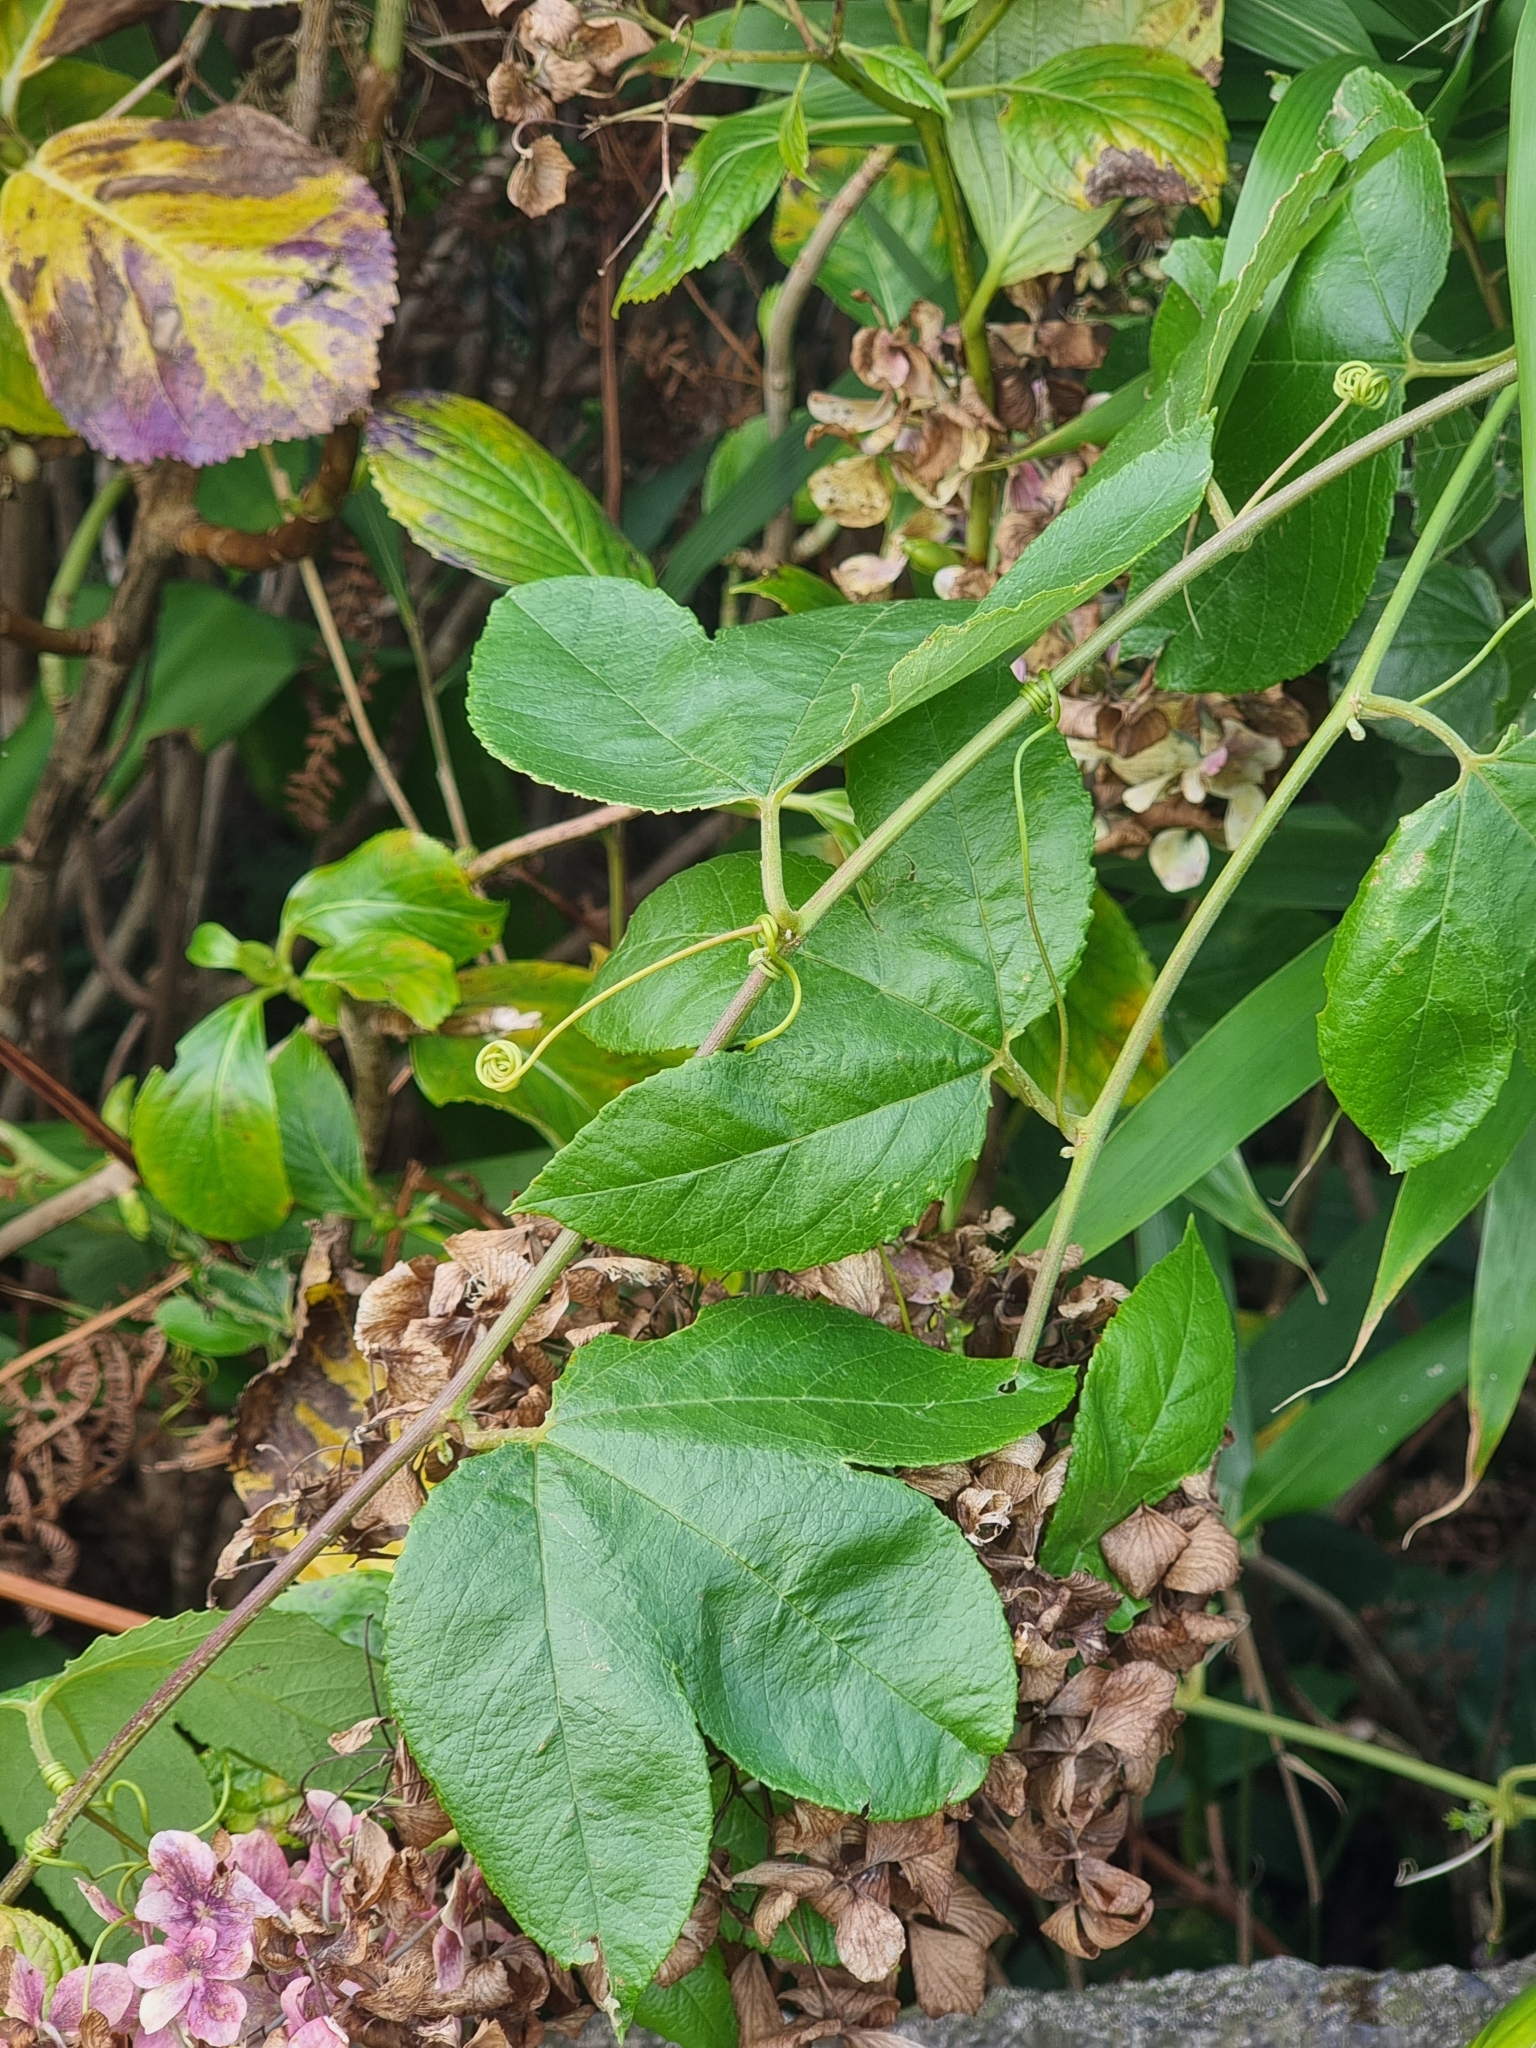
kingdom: Plantae
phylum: Tracheophyta
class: Magnoliopsida
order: Malpighiales
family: Passifloraceae
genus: Passiflora
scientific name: Passiflora tarminiana
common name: Banana poka
